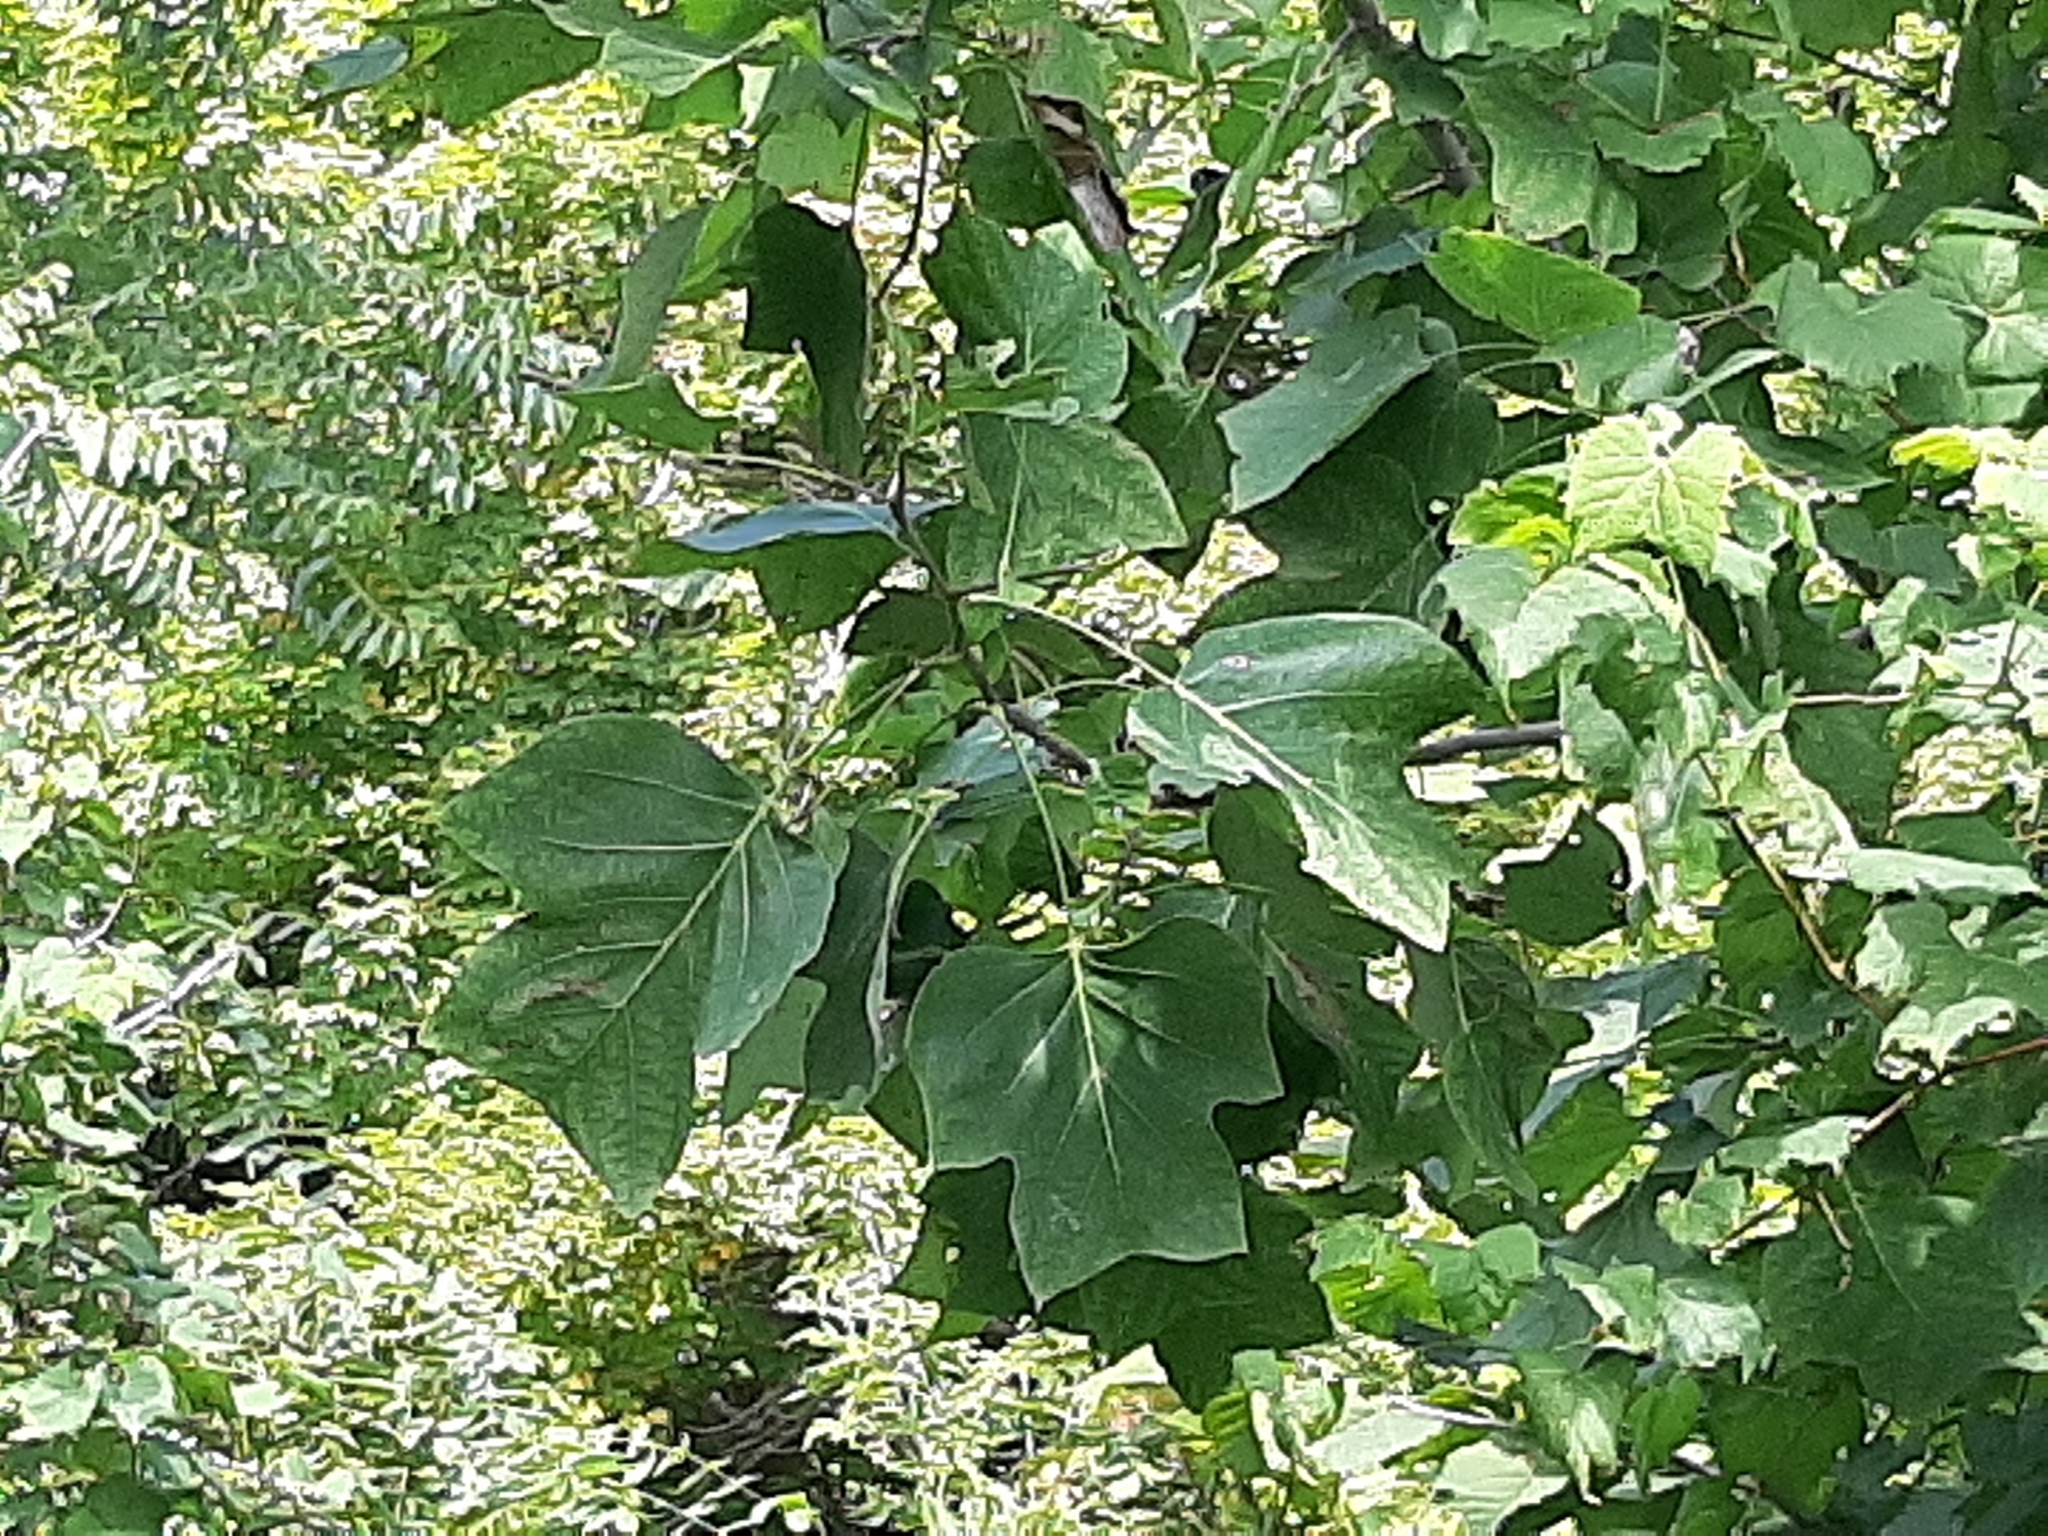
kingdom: Plantae
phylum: Tracheophyta
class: Magnoliopsida
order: Magnoliales
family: Magnoliaceae
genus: Liriodendron
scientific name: Liriodendron tulipifera
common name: Tulip tree
